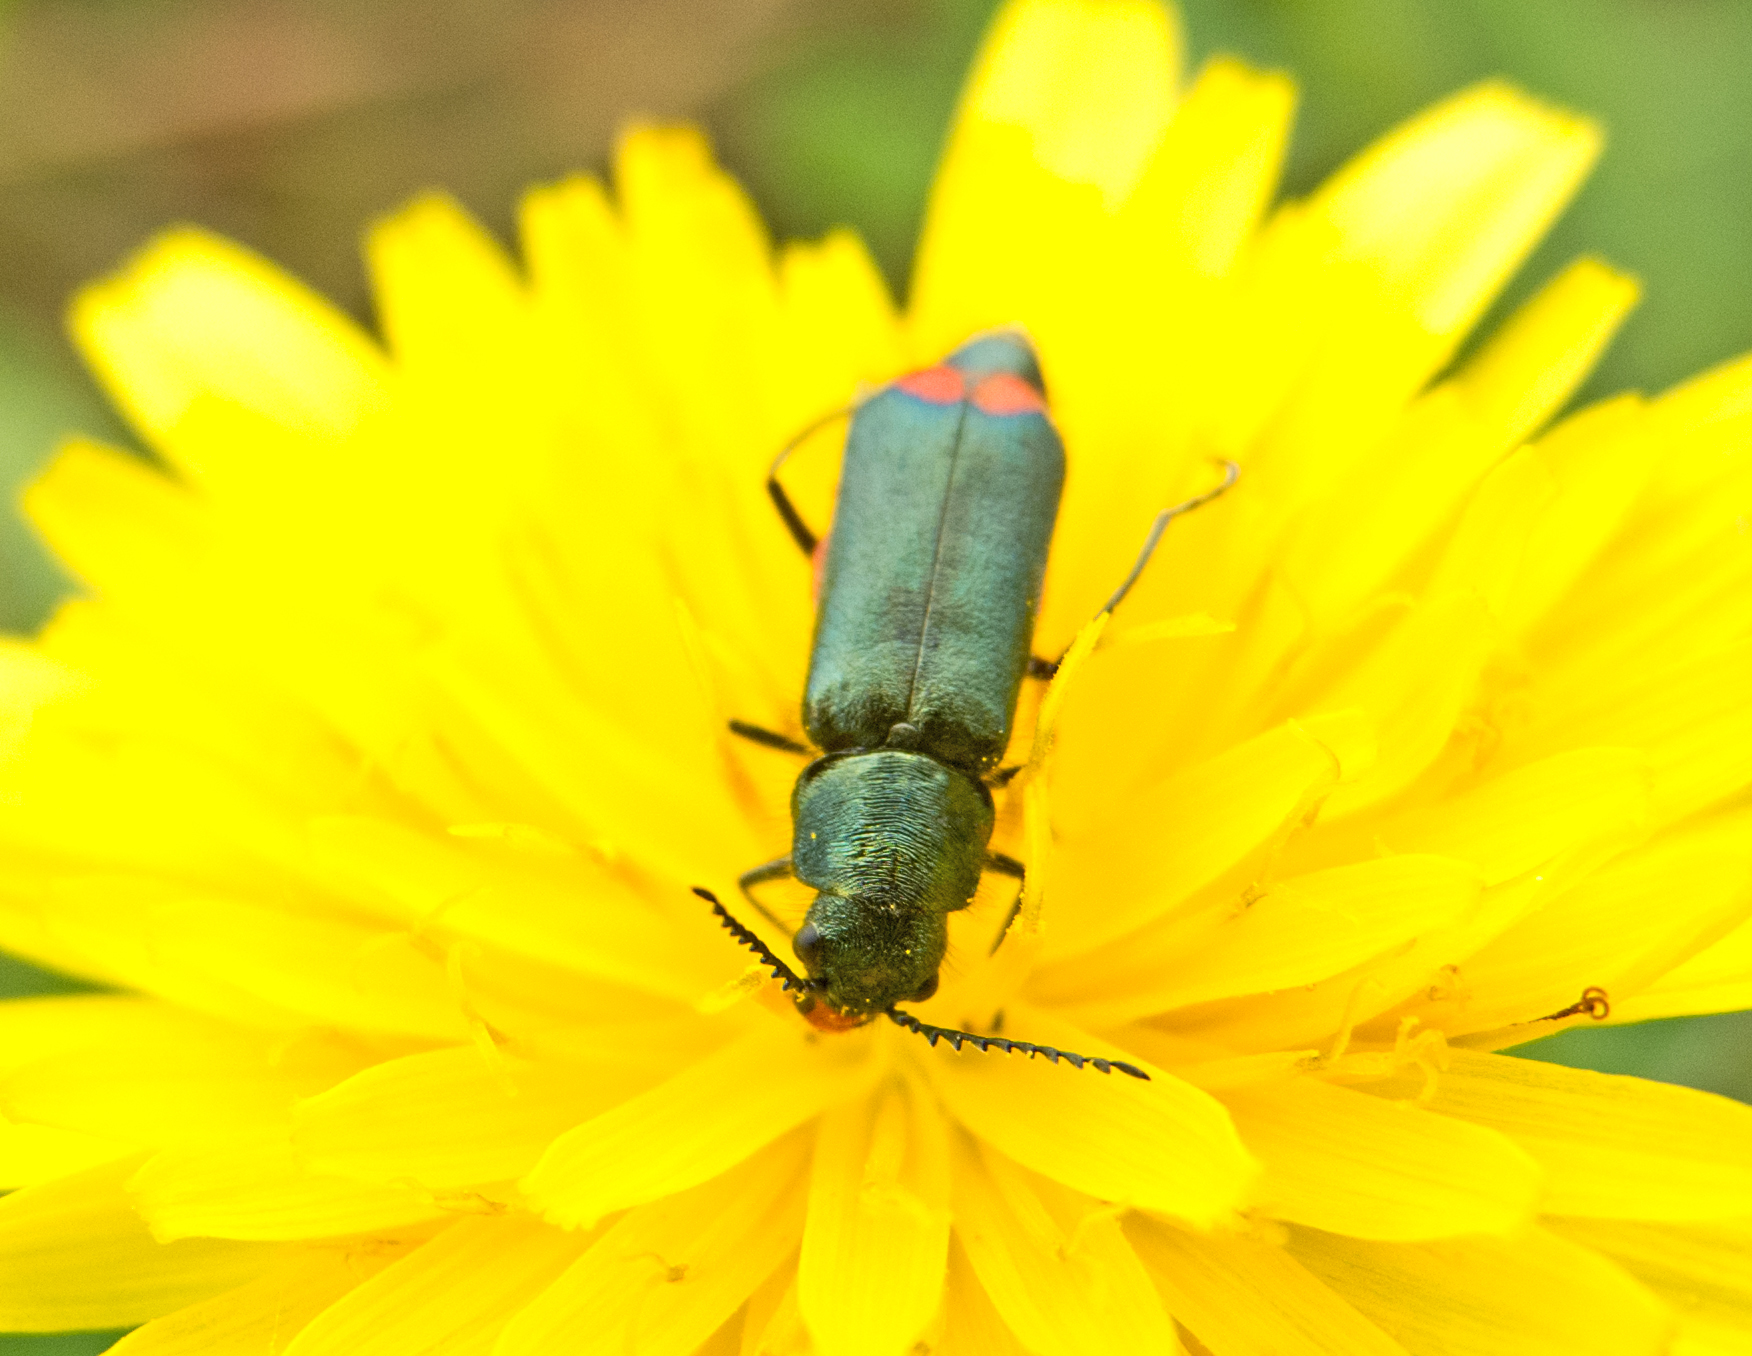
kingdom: Animalia
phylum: Arthropoda
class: Insecta
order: Coleoptera
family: Malachiidae
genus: Haplomalachius
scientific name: Haplomalachius flabellatus
